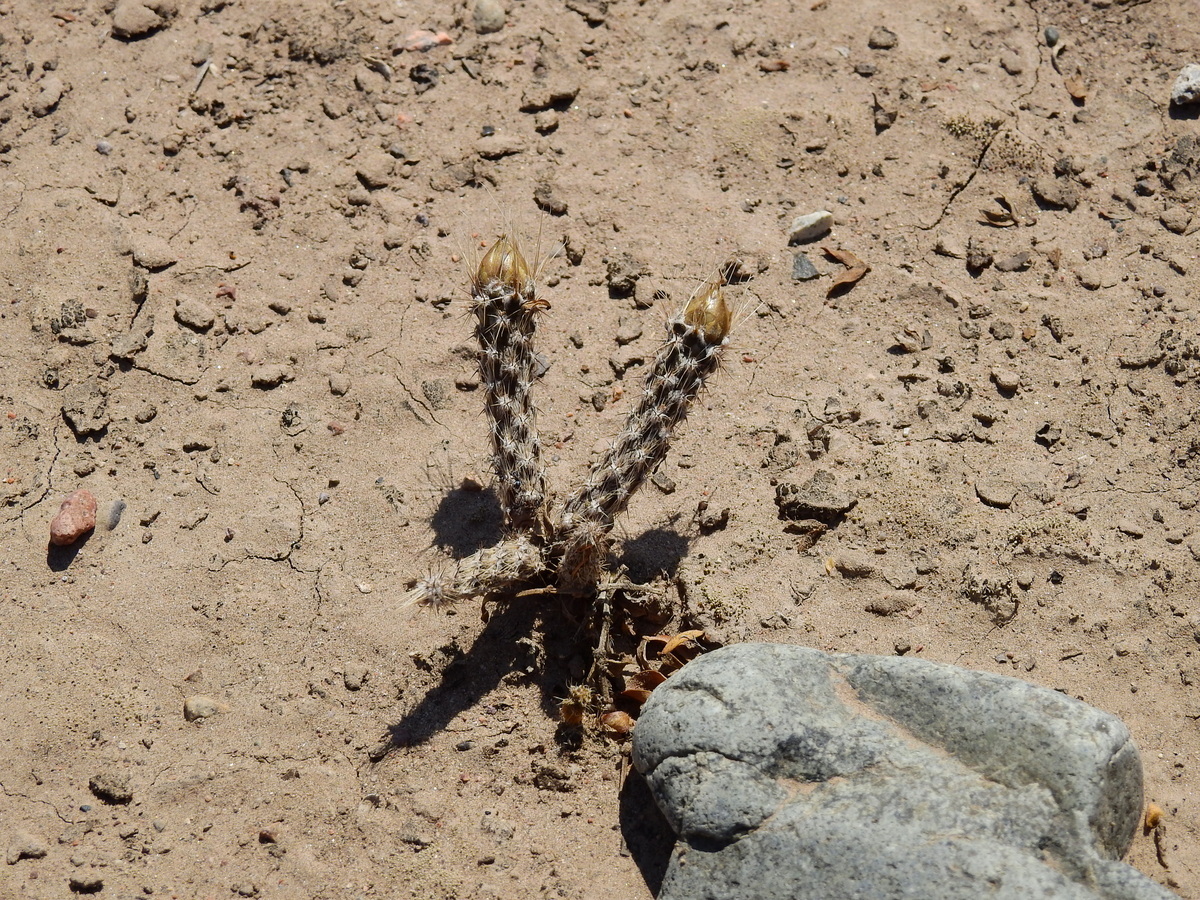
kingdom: Plantae
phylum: Tracheophyta
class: Magnoliopsida
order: Caryophyllales
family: Cactaceae
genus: Pterocactus
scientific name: Pterocactus tuberosus
